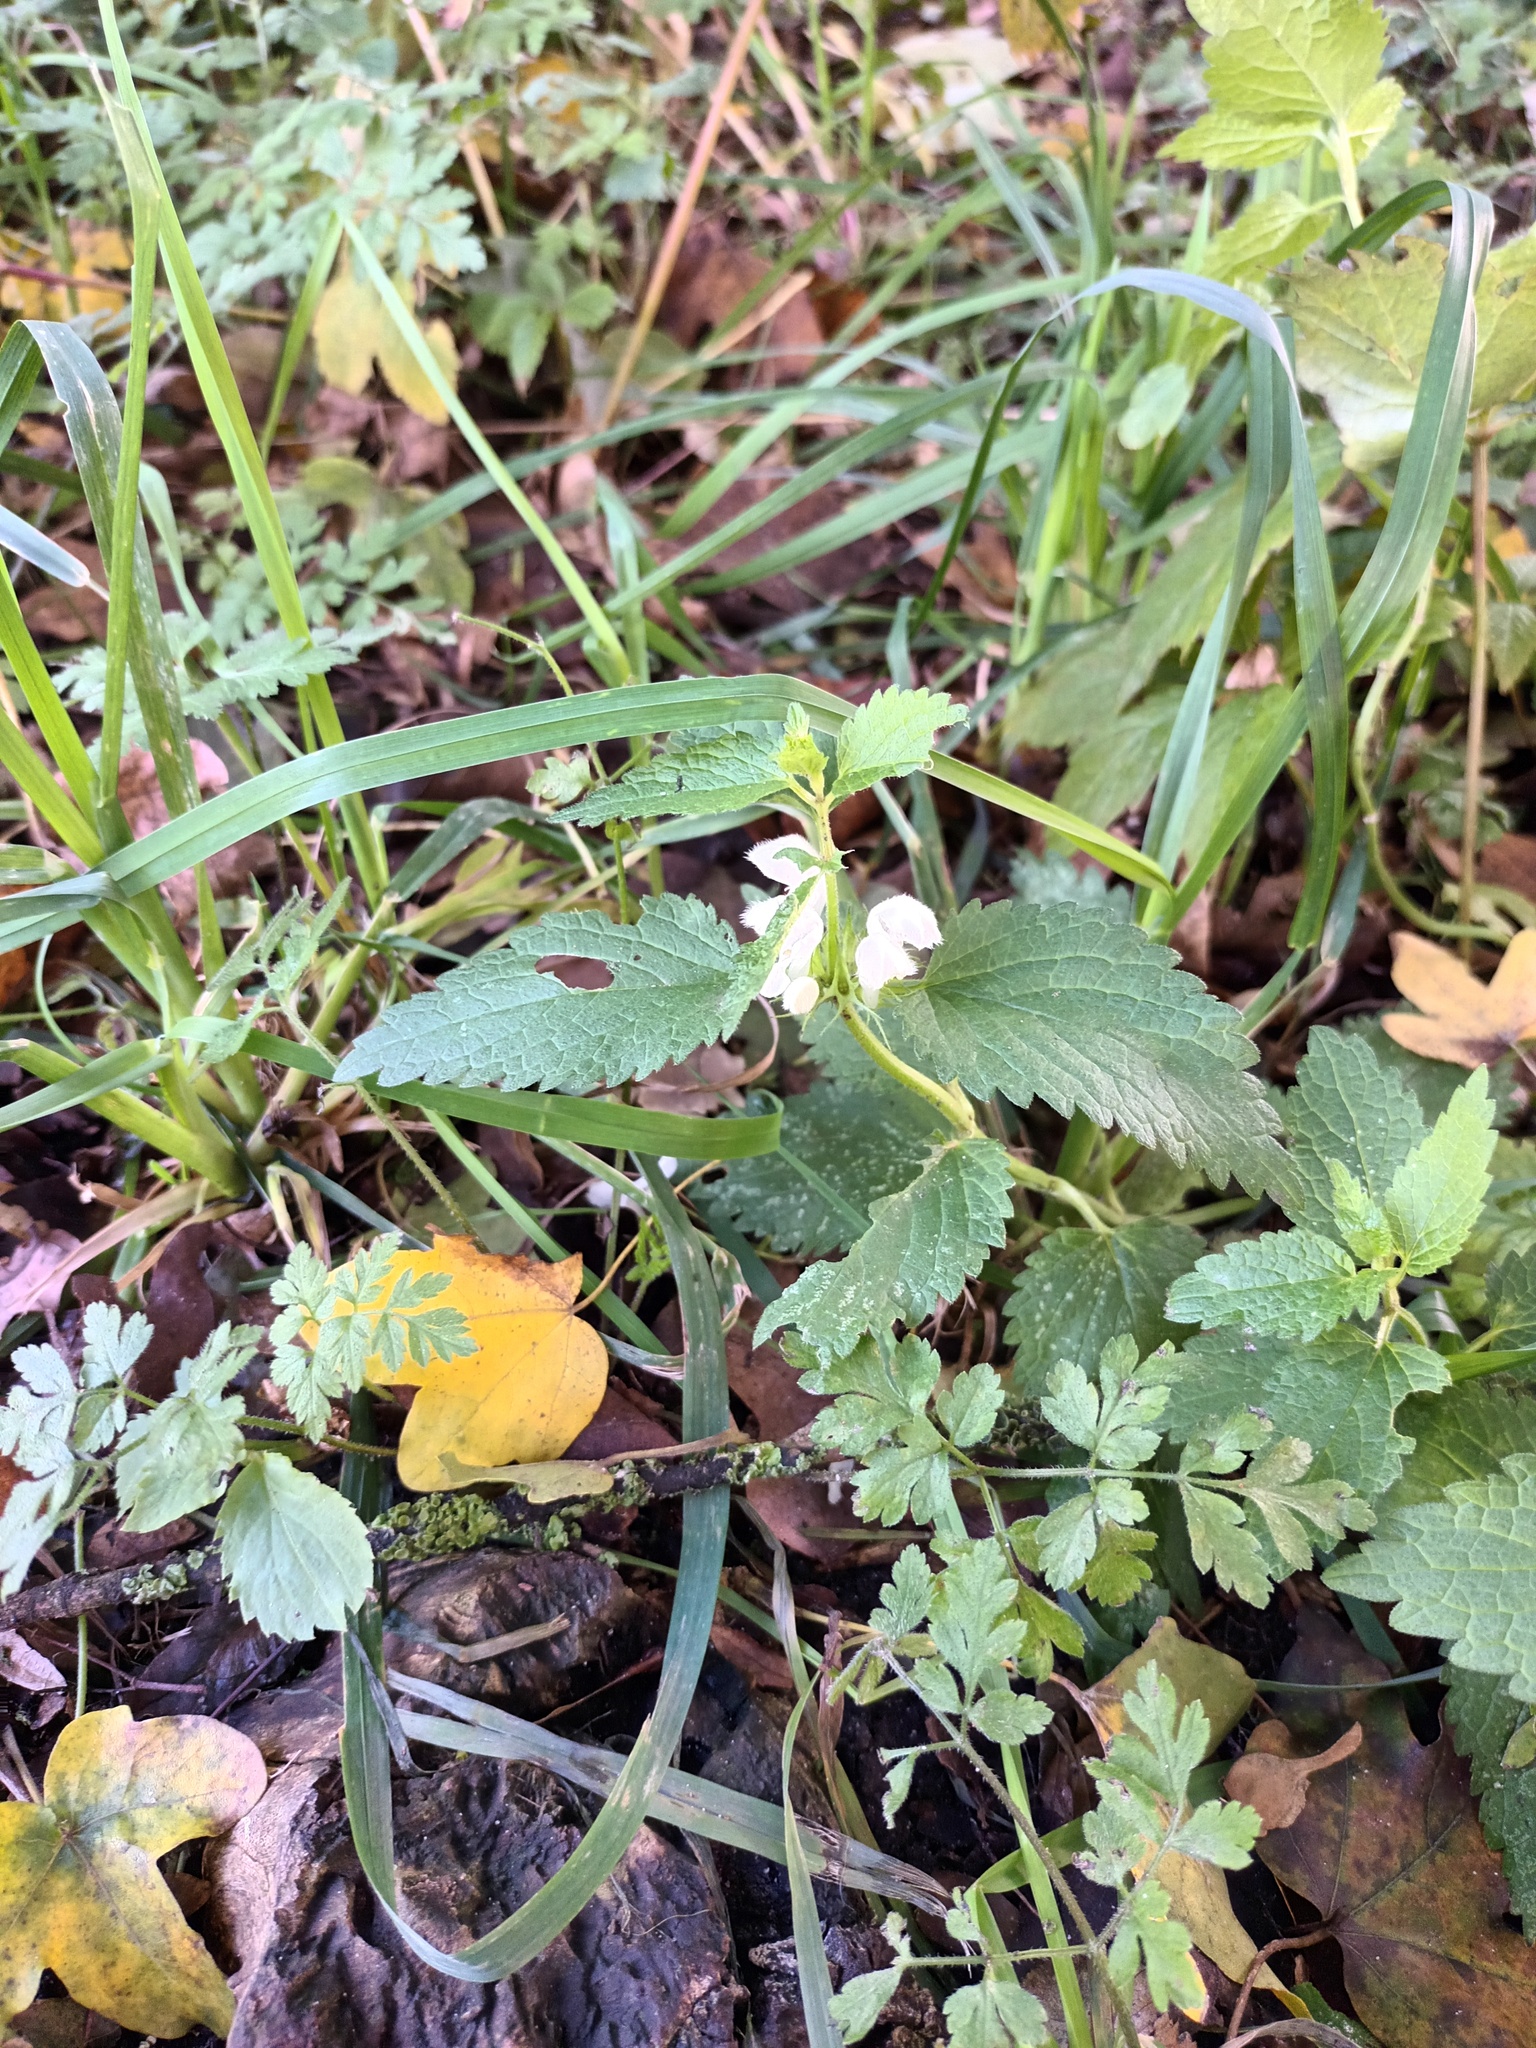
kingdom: Plantae
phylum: Tracheophyta
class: Magnoliopsida
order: Lamiales
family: Lamiaceae
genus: Lamium
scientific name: Lamium album
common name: White dead-nettle
